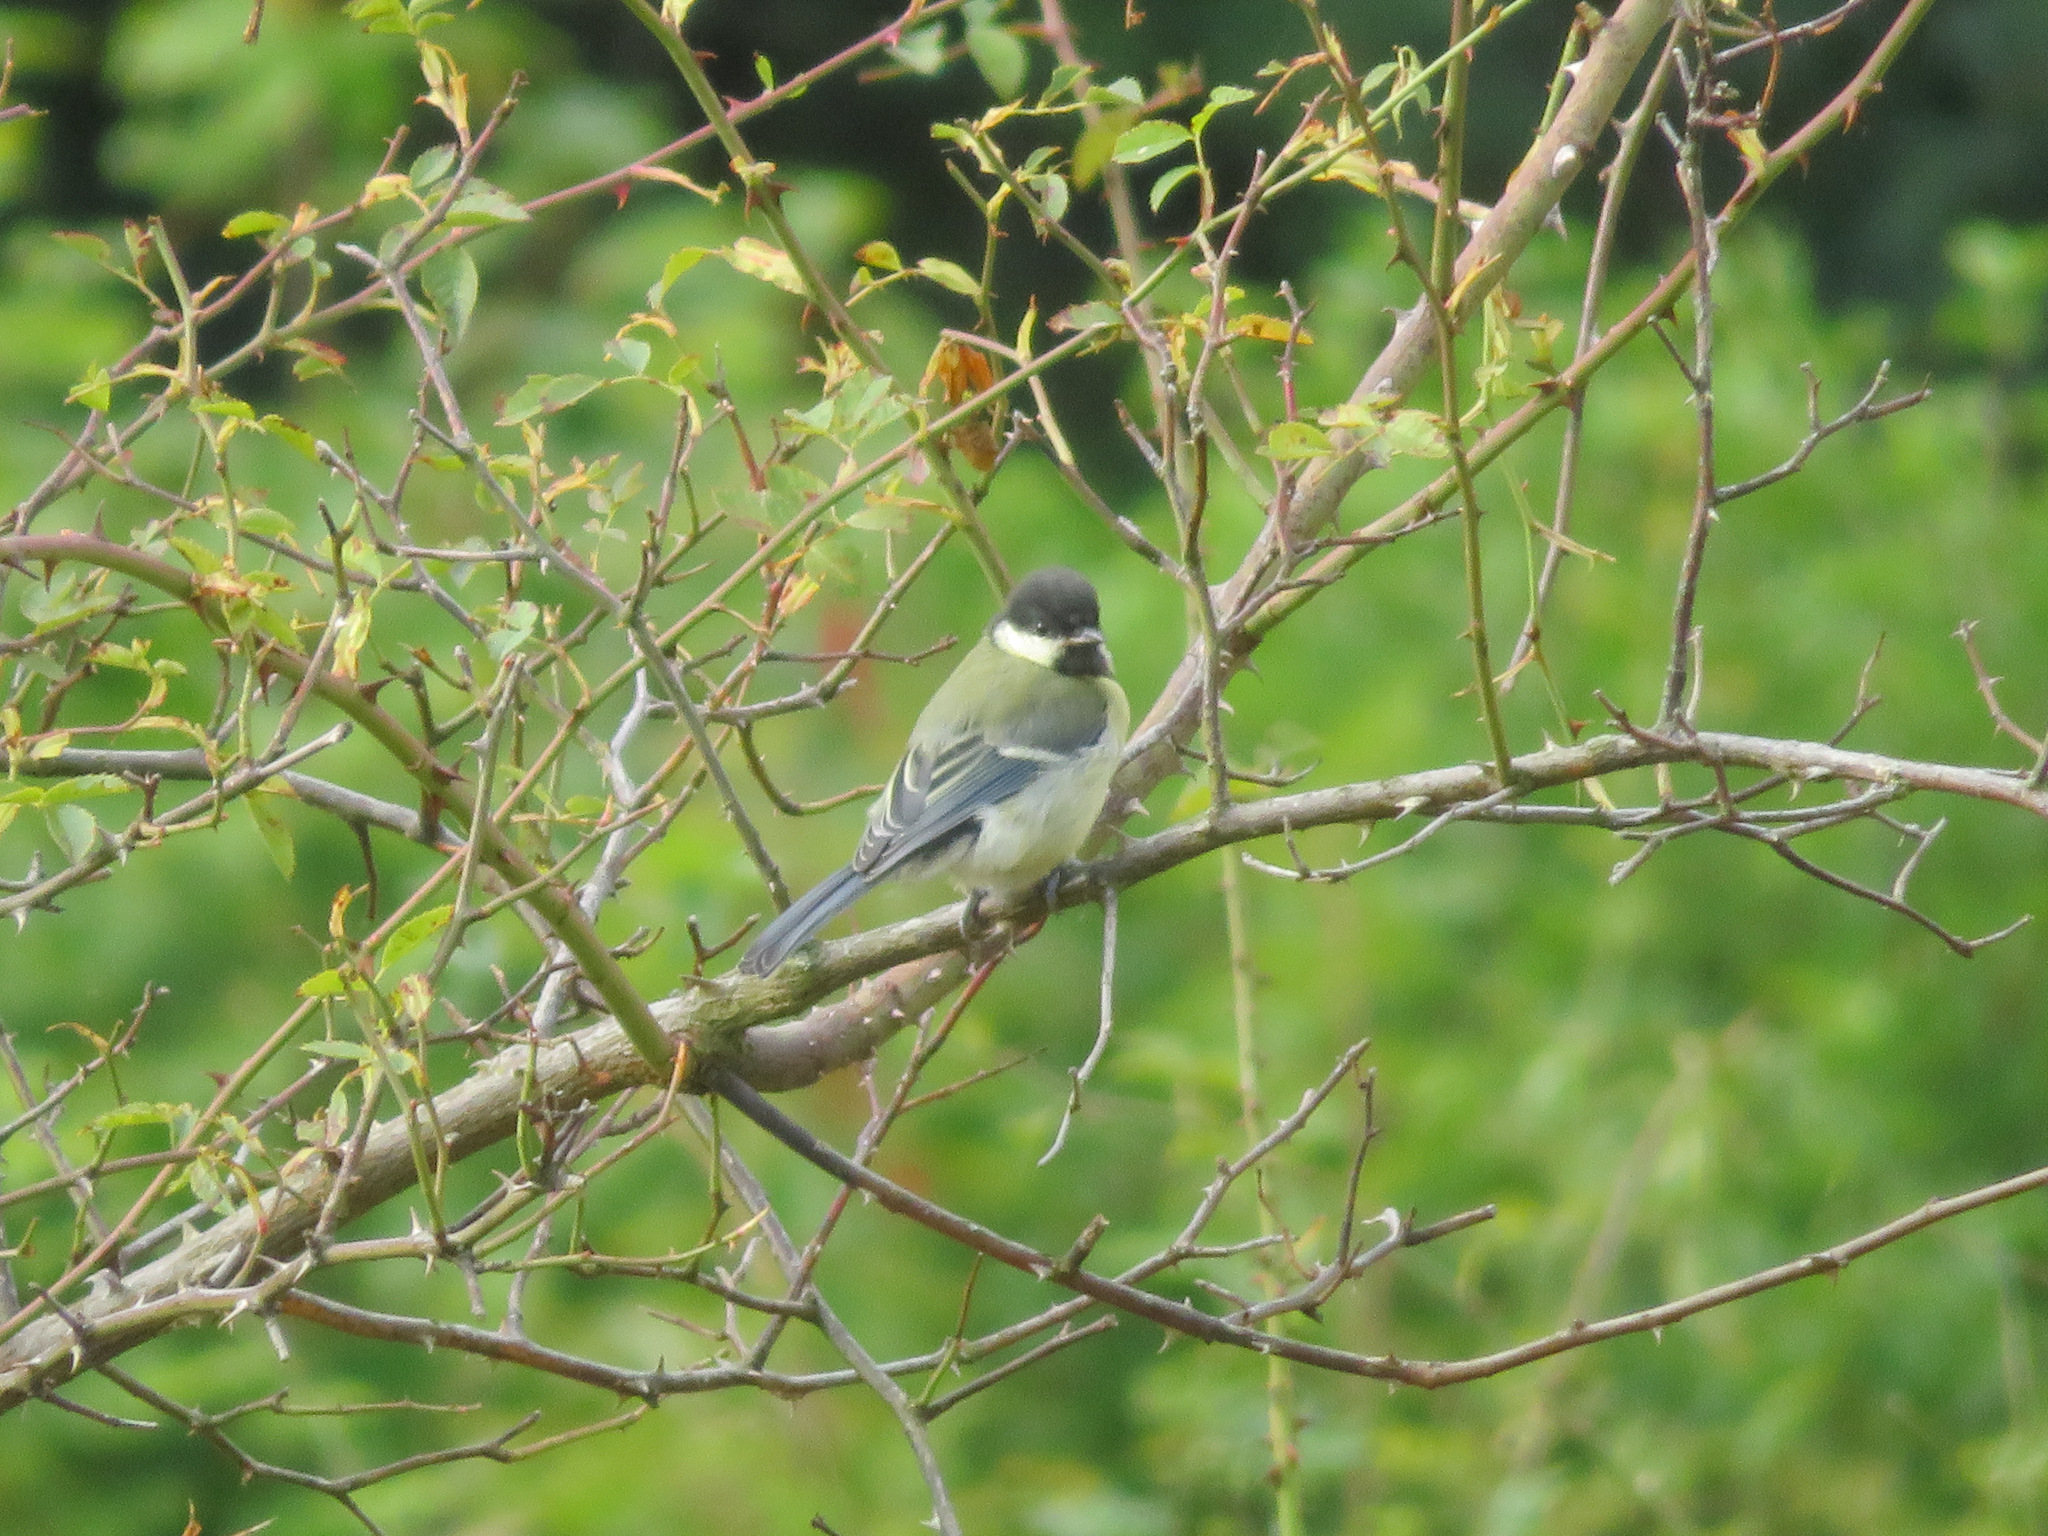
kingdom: Animalia
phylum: Chordata
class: Aves
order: Passeriformes
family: Paridae
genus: Parus
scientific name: Parus major
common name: Great tit
